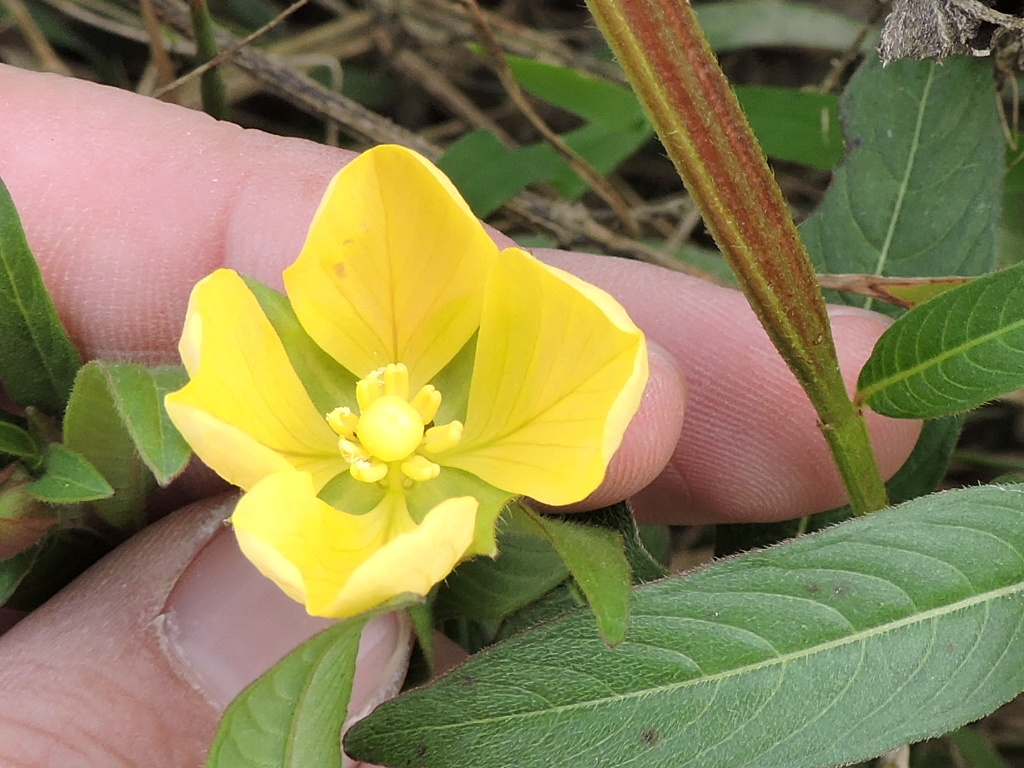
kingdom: Plantae
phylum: Tracheophyta
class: Magnoliopsida
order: Myrtales
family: Onagraceae
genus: Ludwigia
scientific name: Ludwigia octovalvis
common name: Water-primrose
